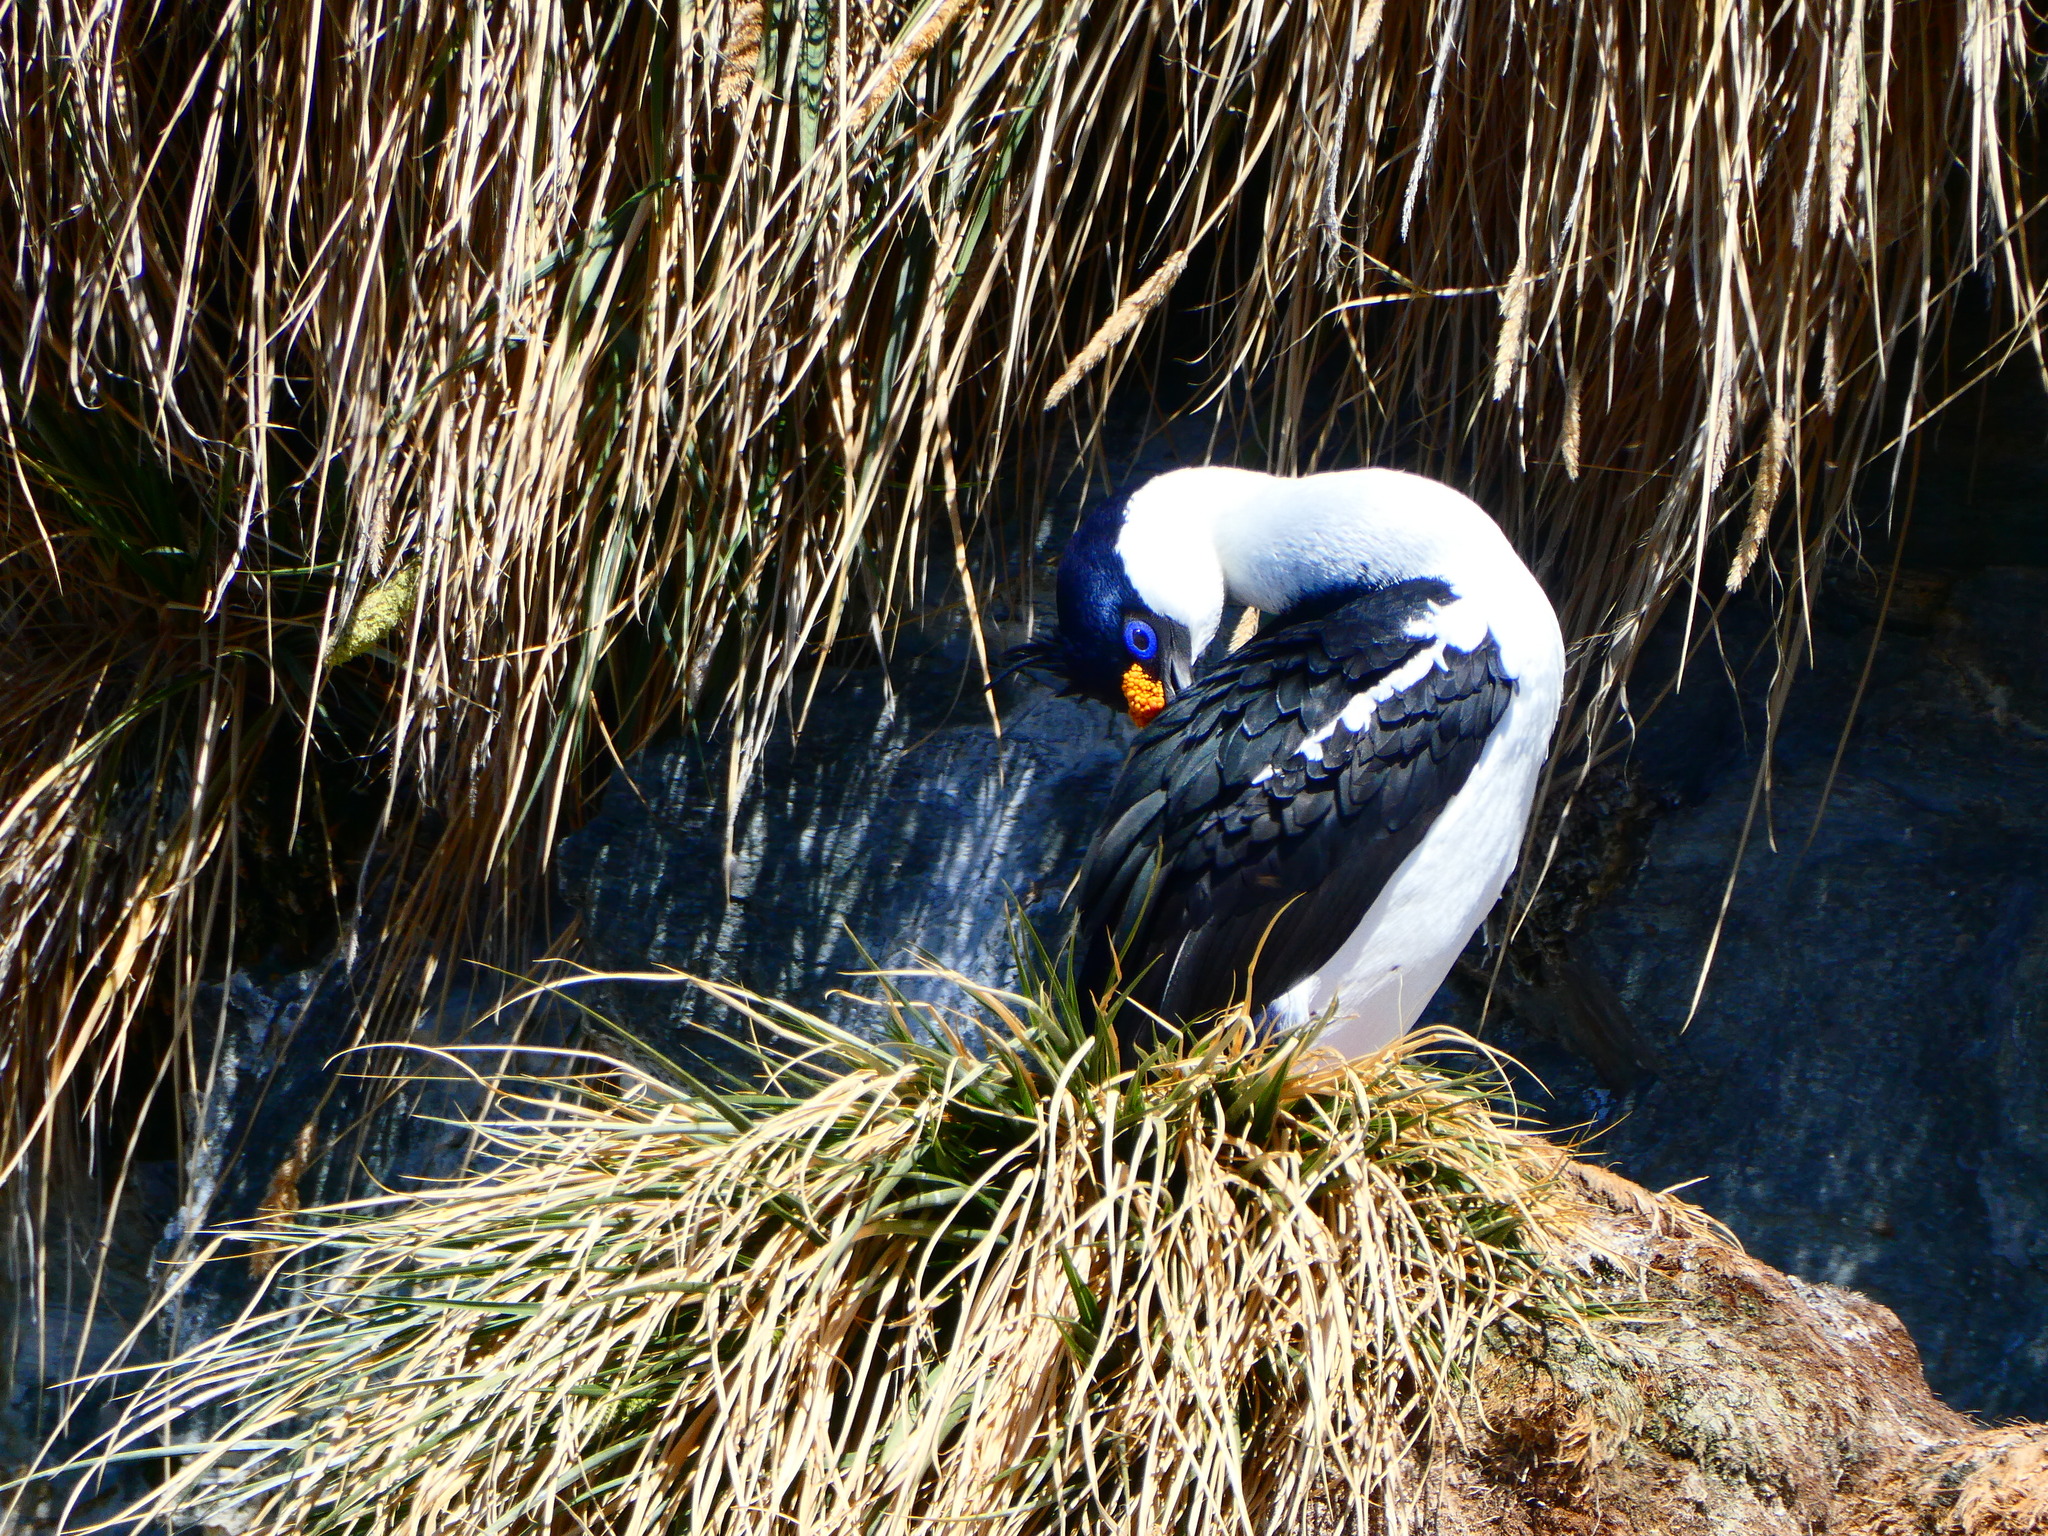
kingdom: Animalia
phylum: Chordata
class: Aves
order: Suliformes
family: Phalacrocoracidae
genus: Leucocarbo
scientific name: Leucocarbo atriceps
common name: Imperial shag
